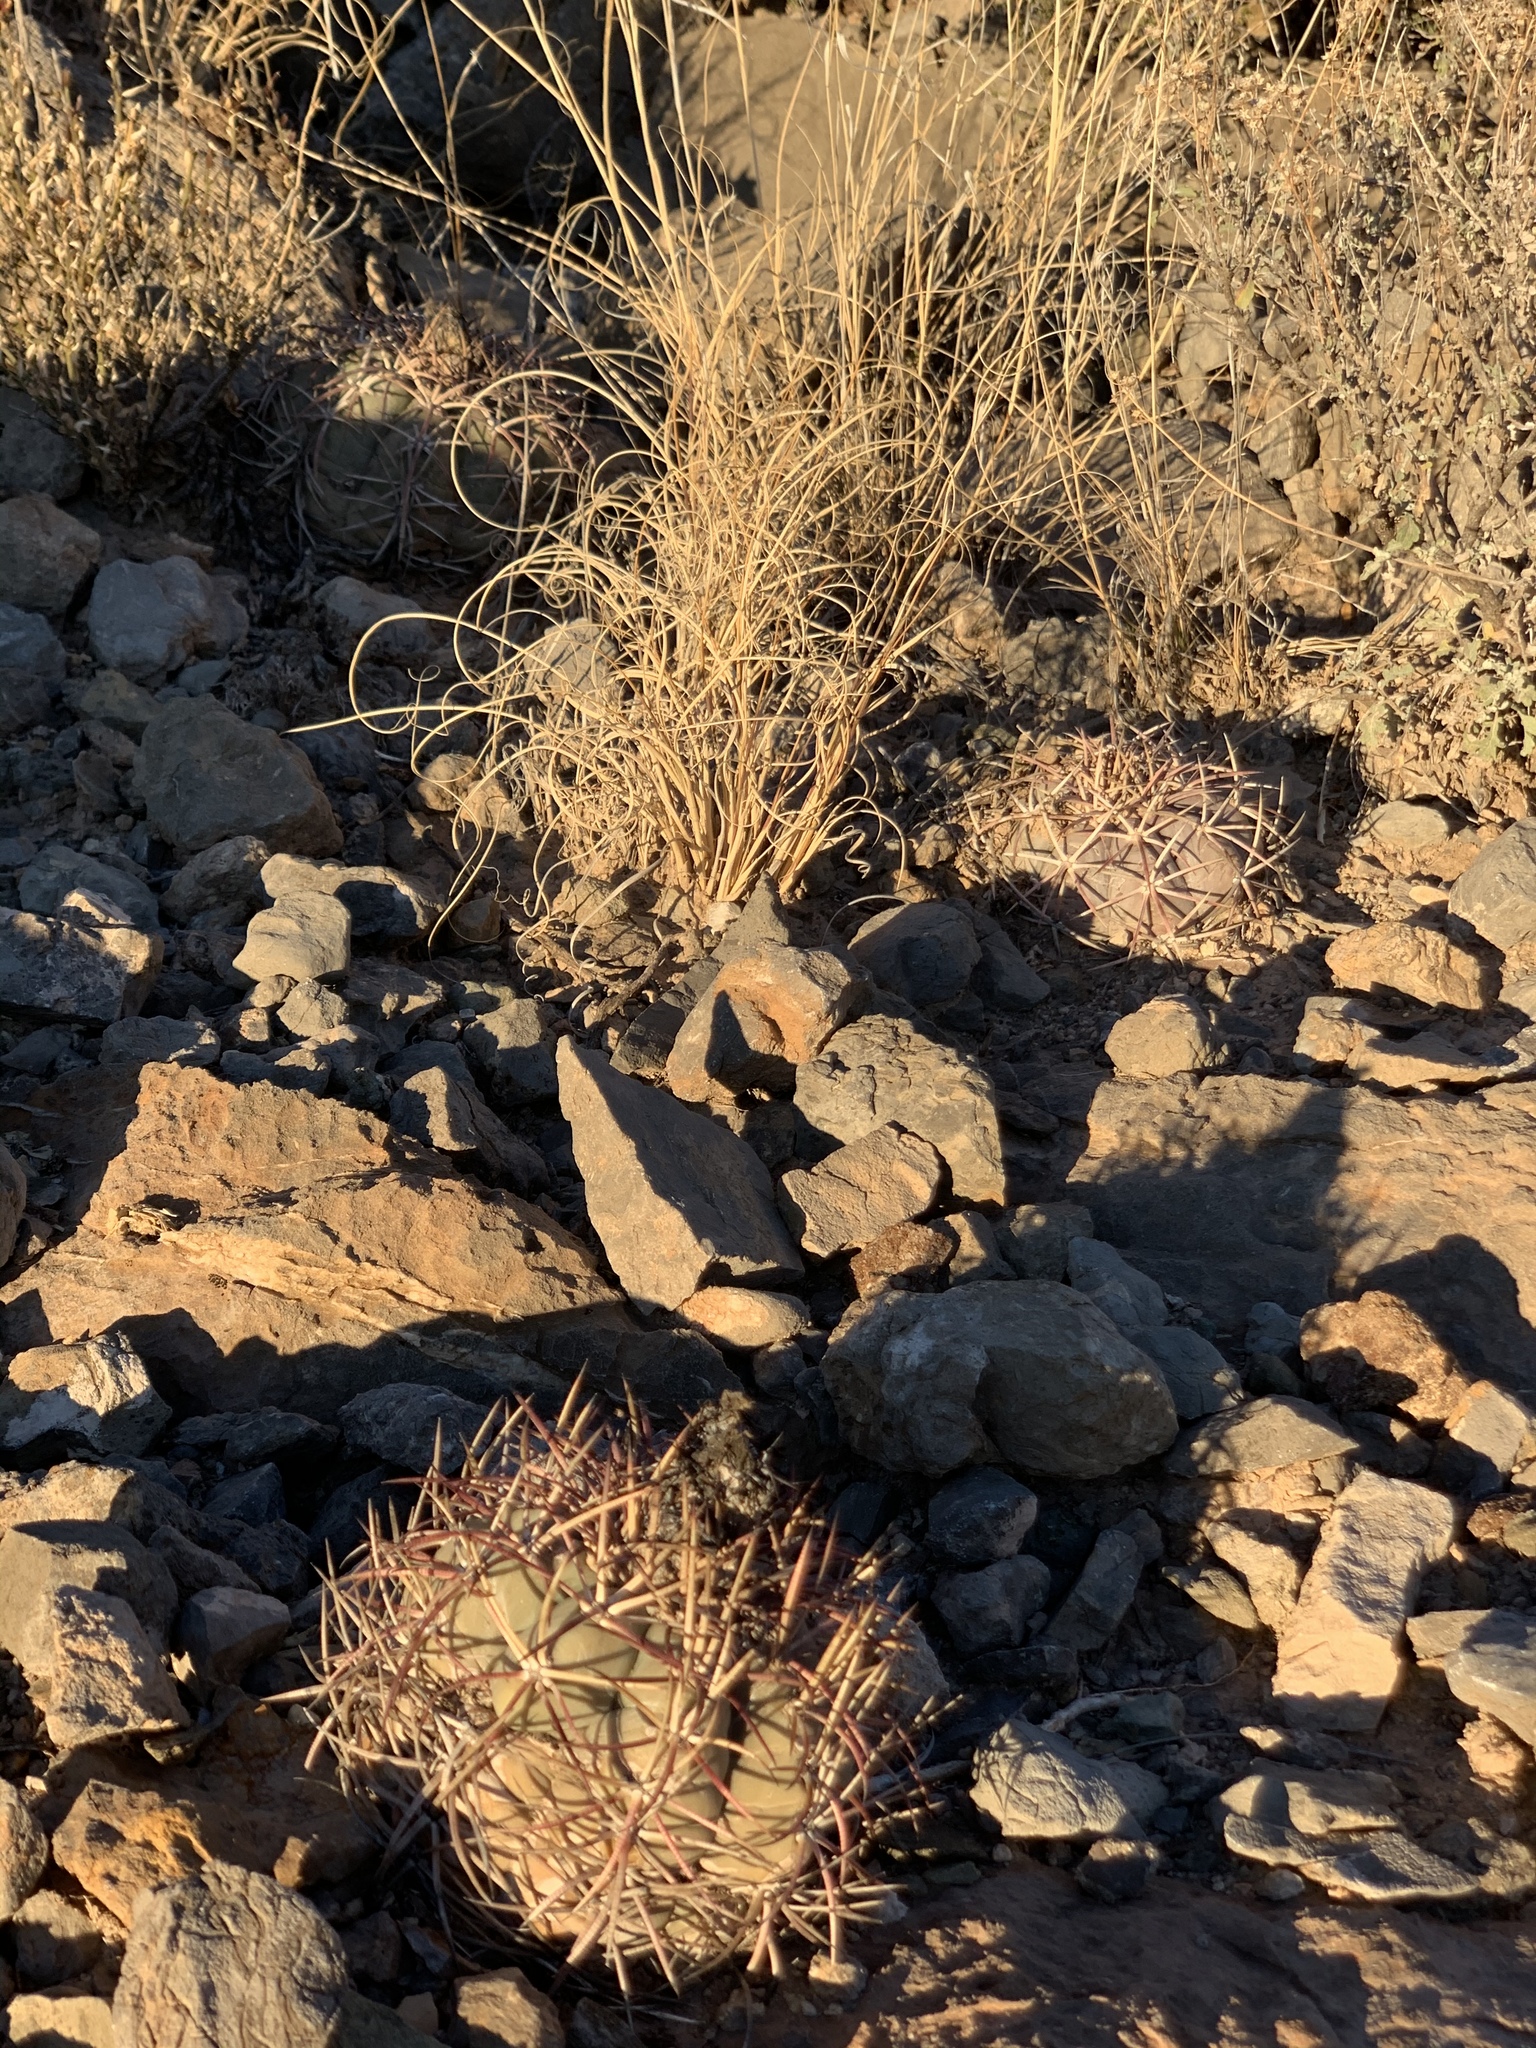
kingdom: Plantae
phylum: Tracheophyta
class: Magnoliopsida
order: Caryophyllales
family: Cactaceae
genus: Echinocactus
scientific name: Echinocactus horizonthalonius
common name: Devilshead
